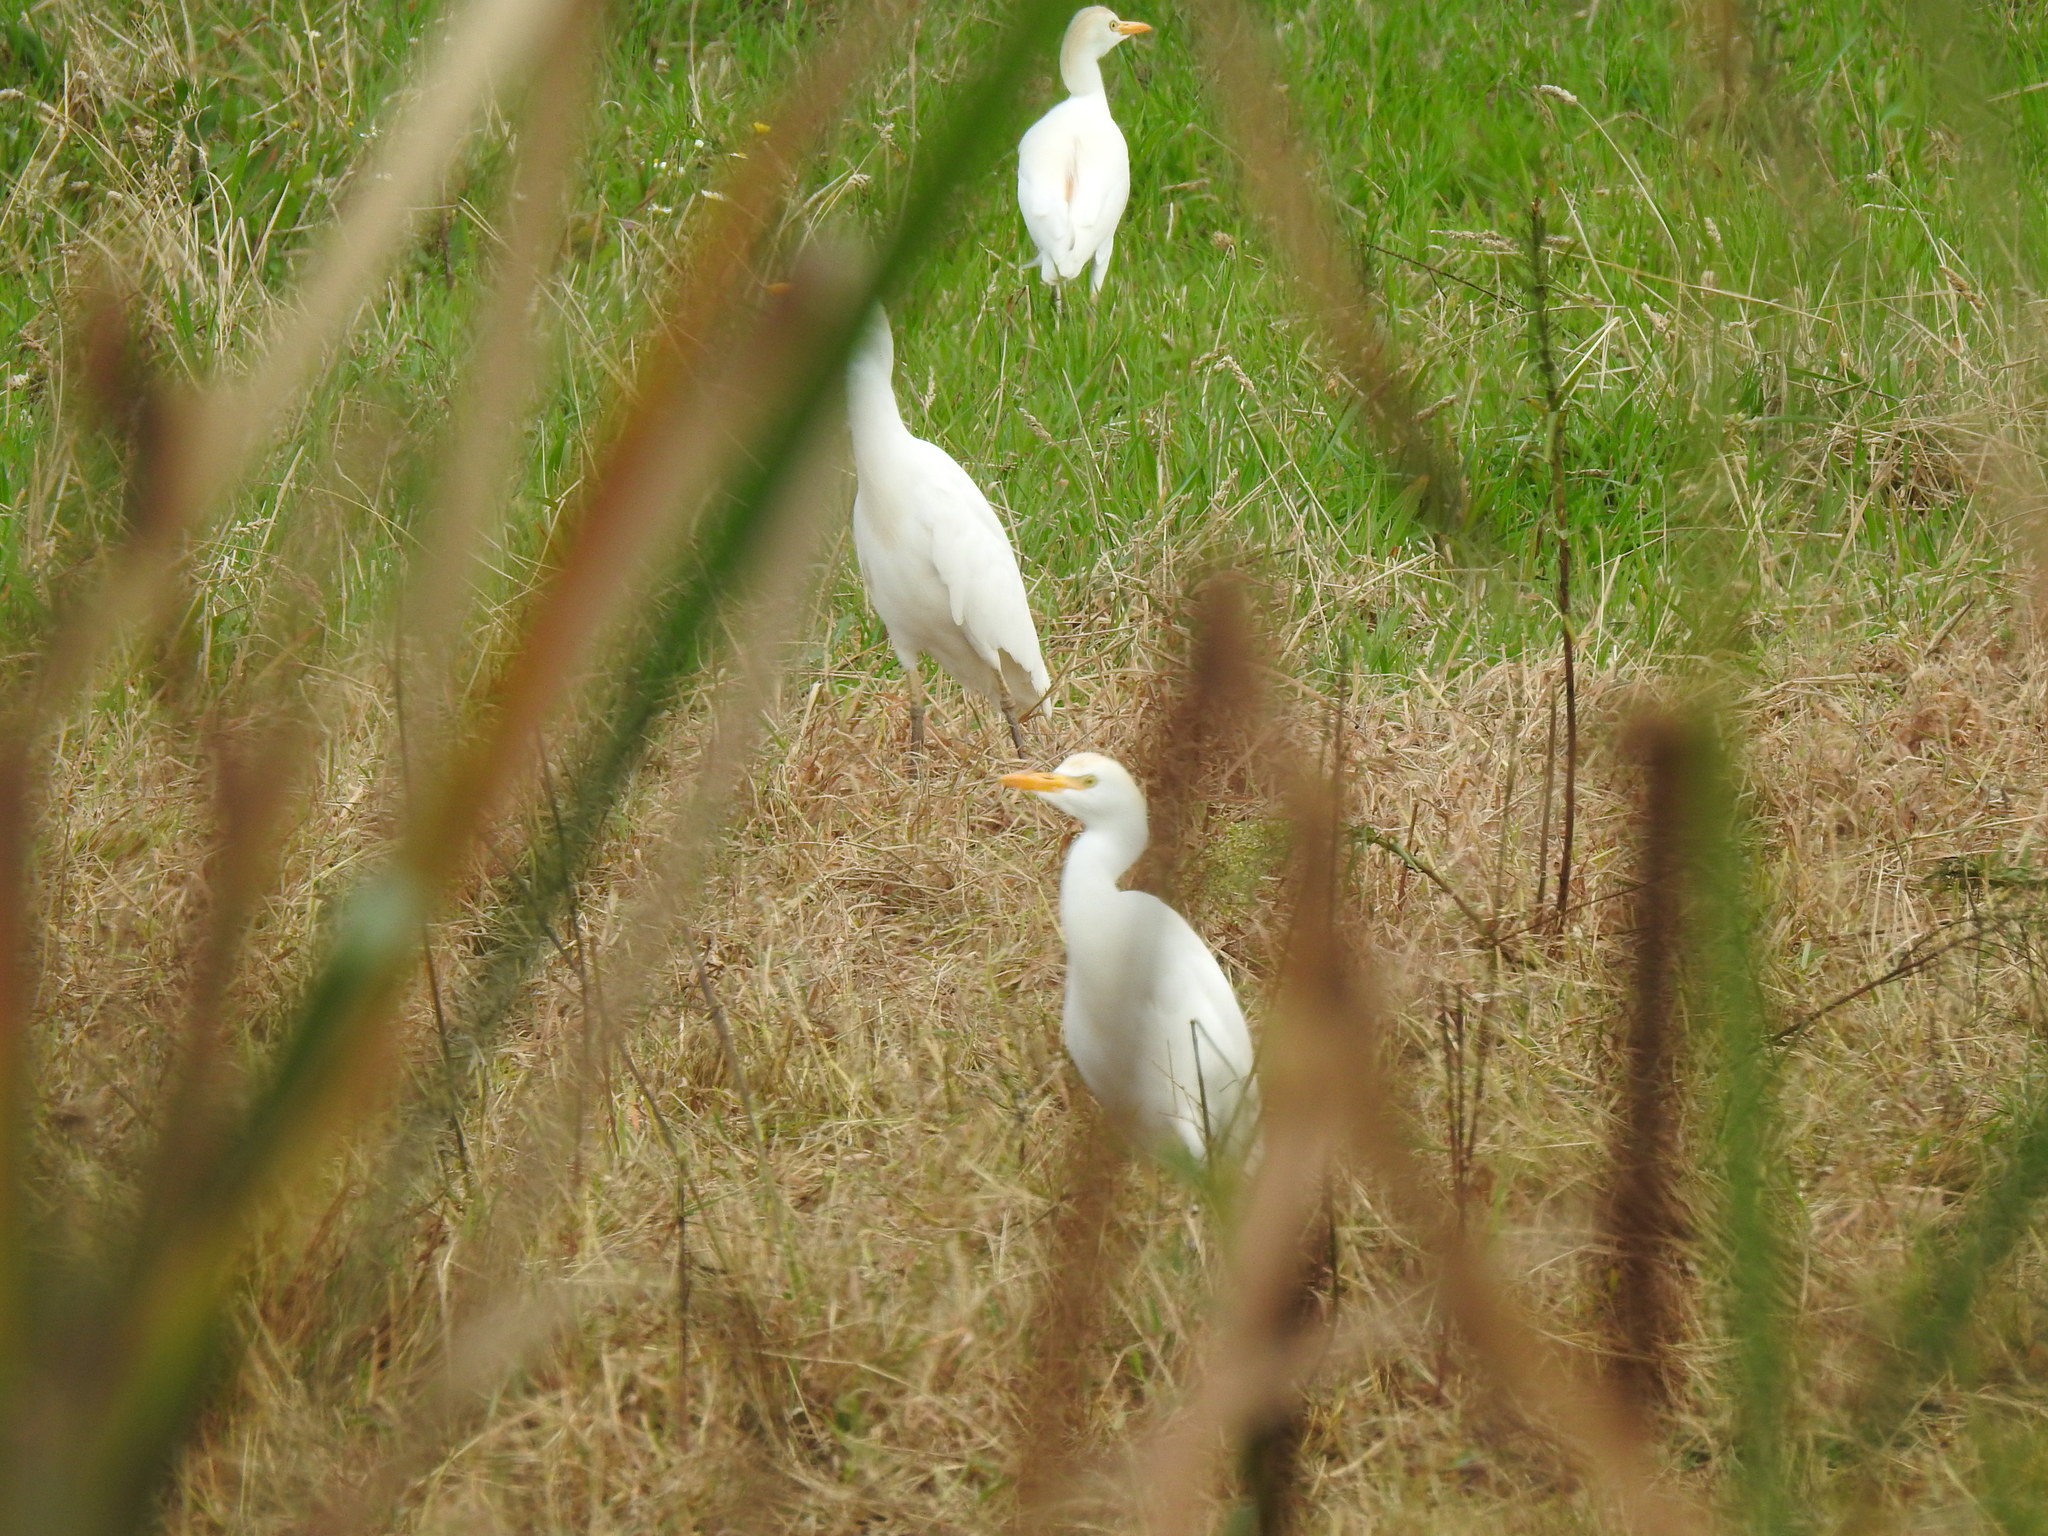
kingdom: Animalia
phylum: Chordata
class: Aves
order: Pelecaniformes
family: Ardeidae
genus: Bubulcus
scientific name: Bubulcus ibis
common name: Cattle egret
